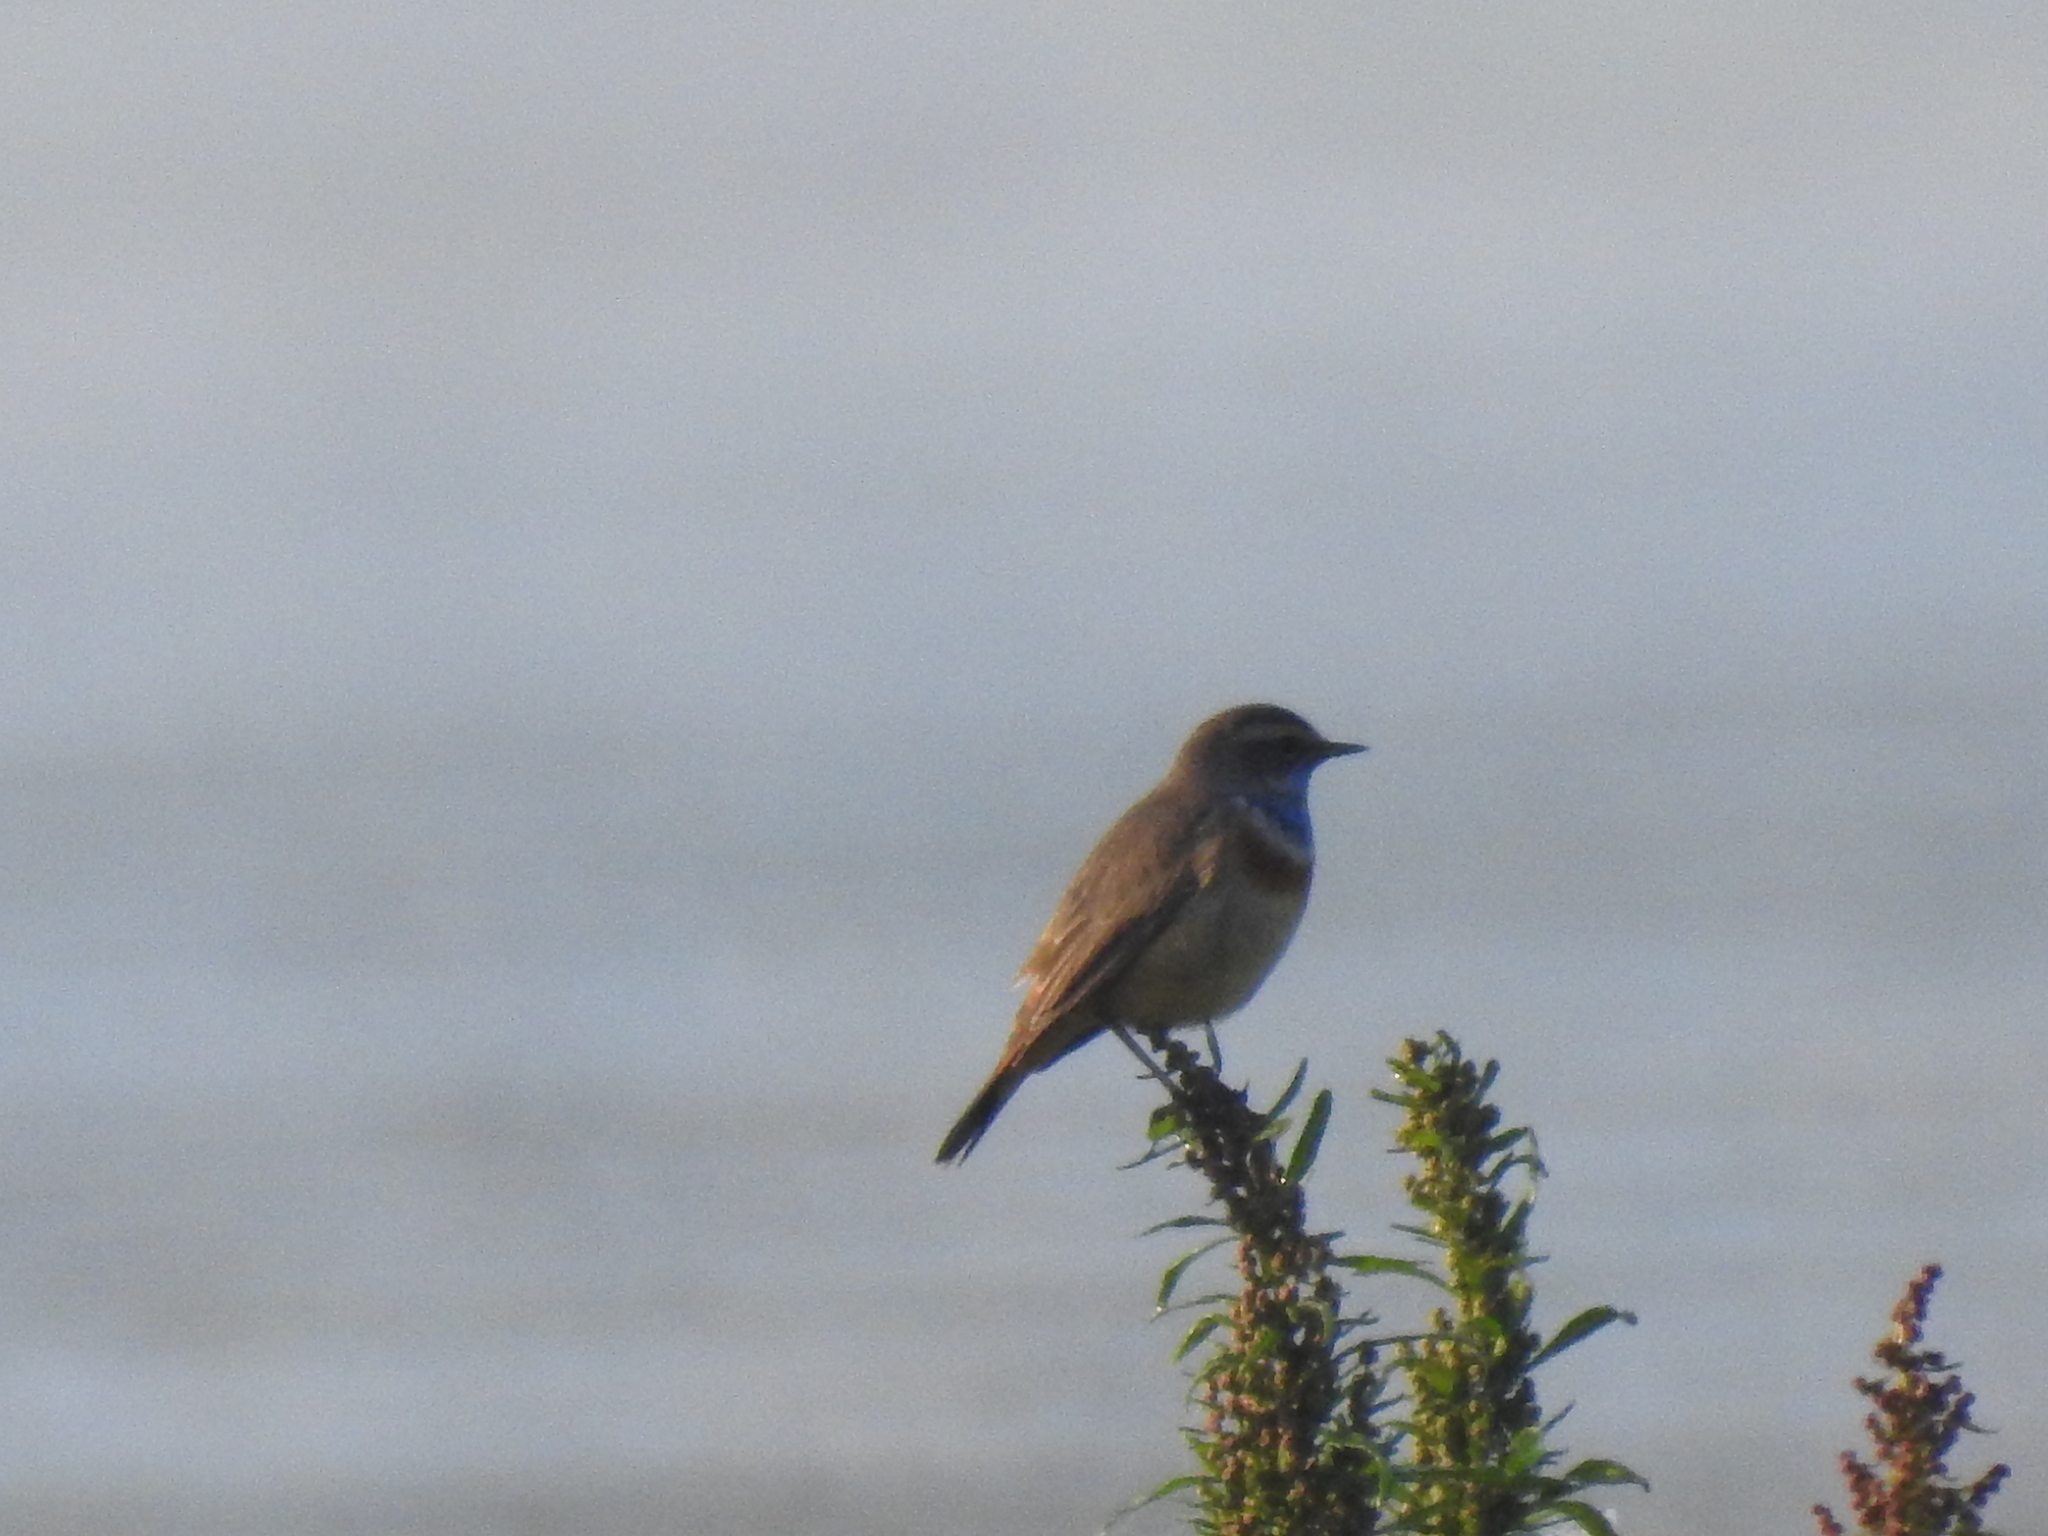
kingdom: Animalia
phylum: Chordata
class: Aves
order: Passeriformes
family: Muscicapidae
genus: Luscinia
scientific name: Luscinia svecica
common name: Bluethroat
